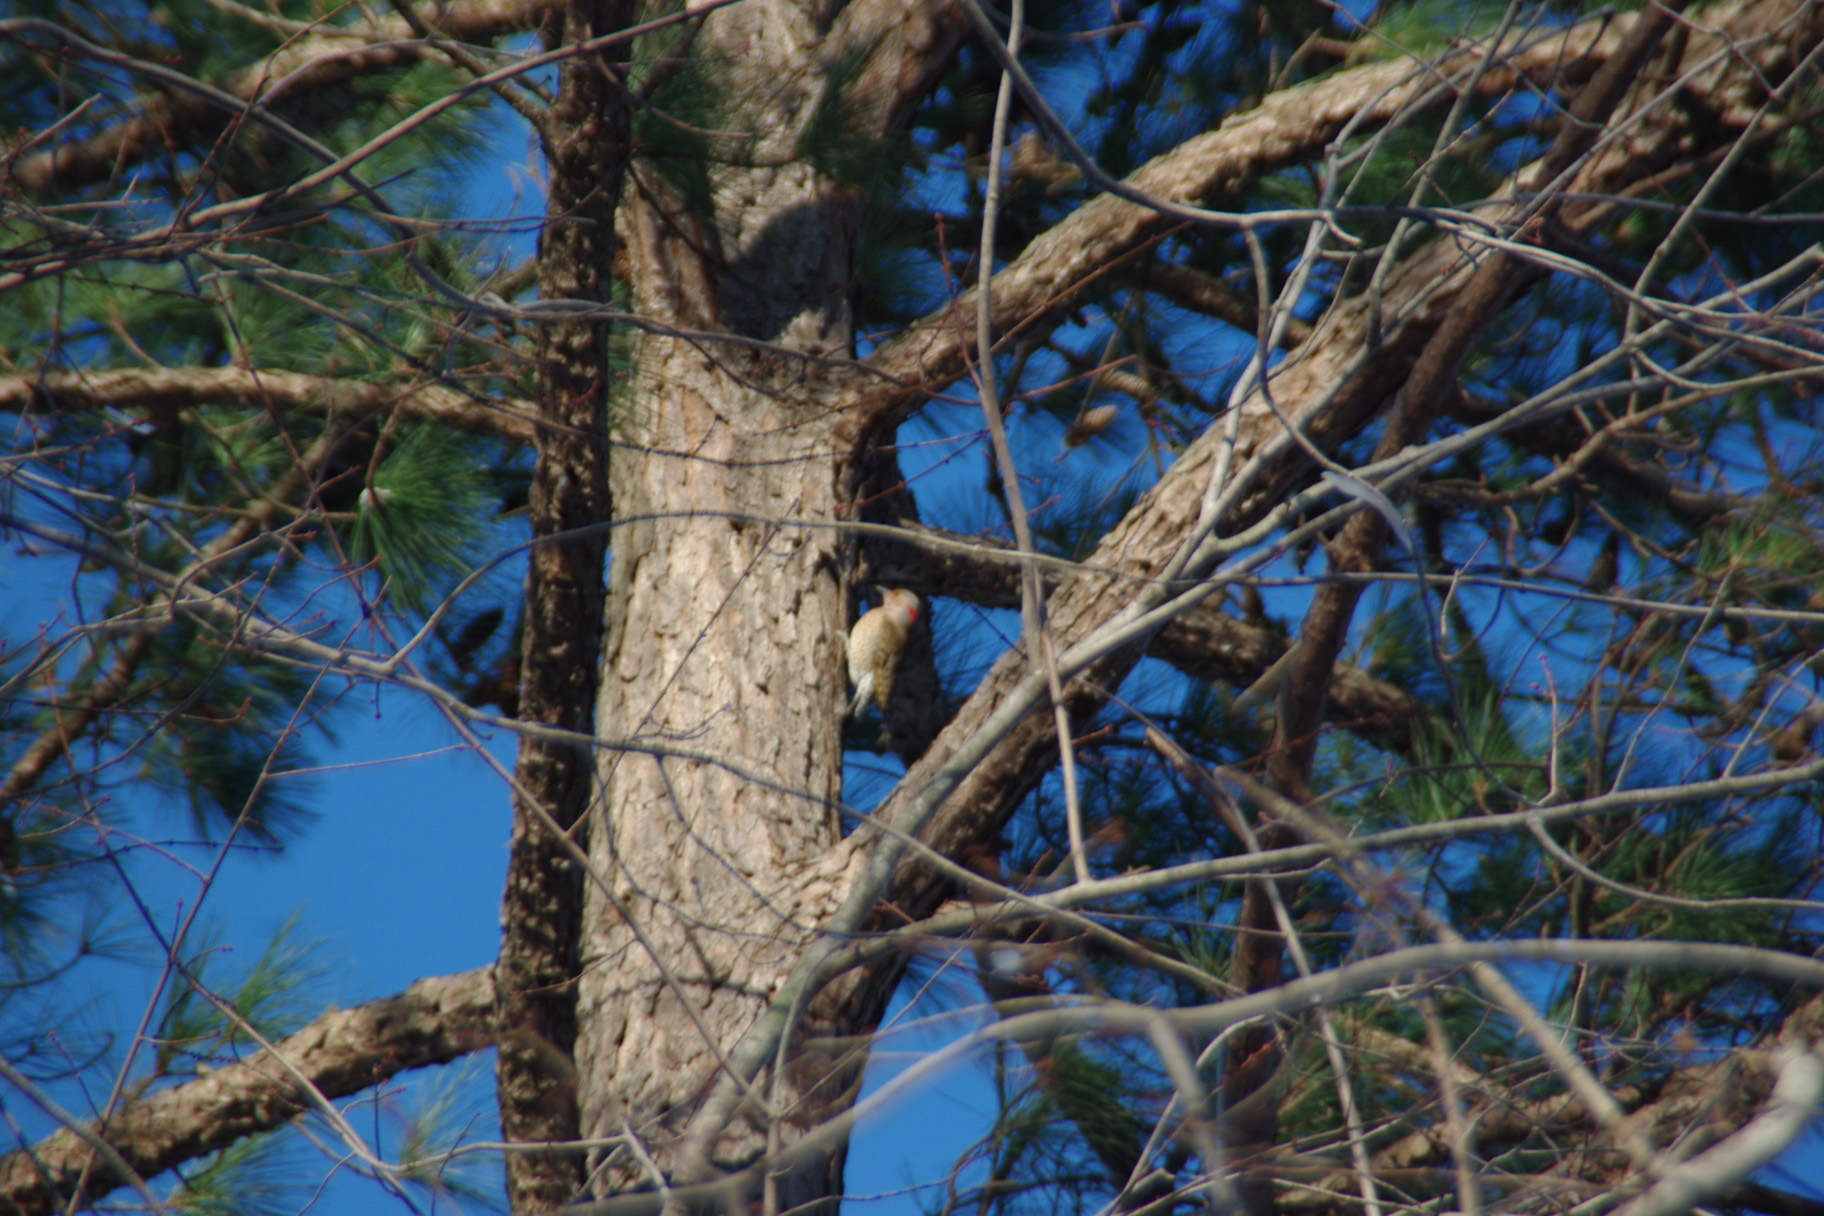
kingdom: Animalia
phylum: Chordata
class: Aves
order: Piciformes
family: Picidae
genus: Colaptes
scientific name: Colaptes auratus
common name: Northern flicker
